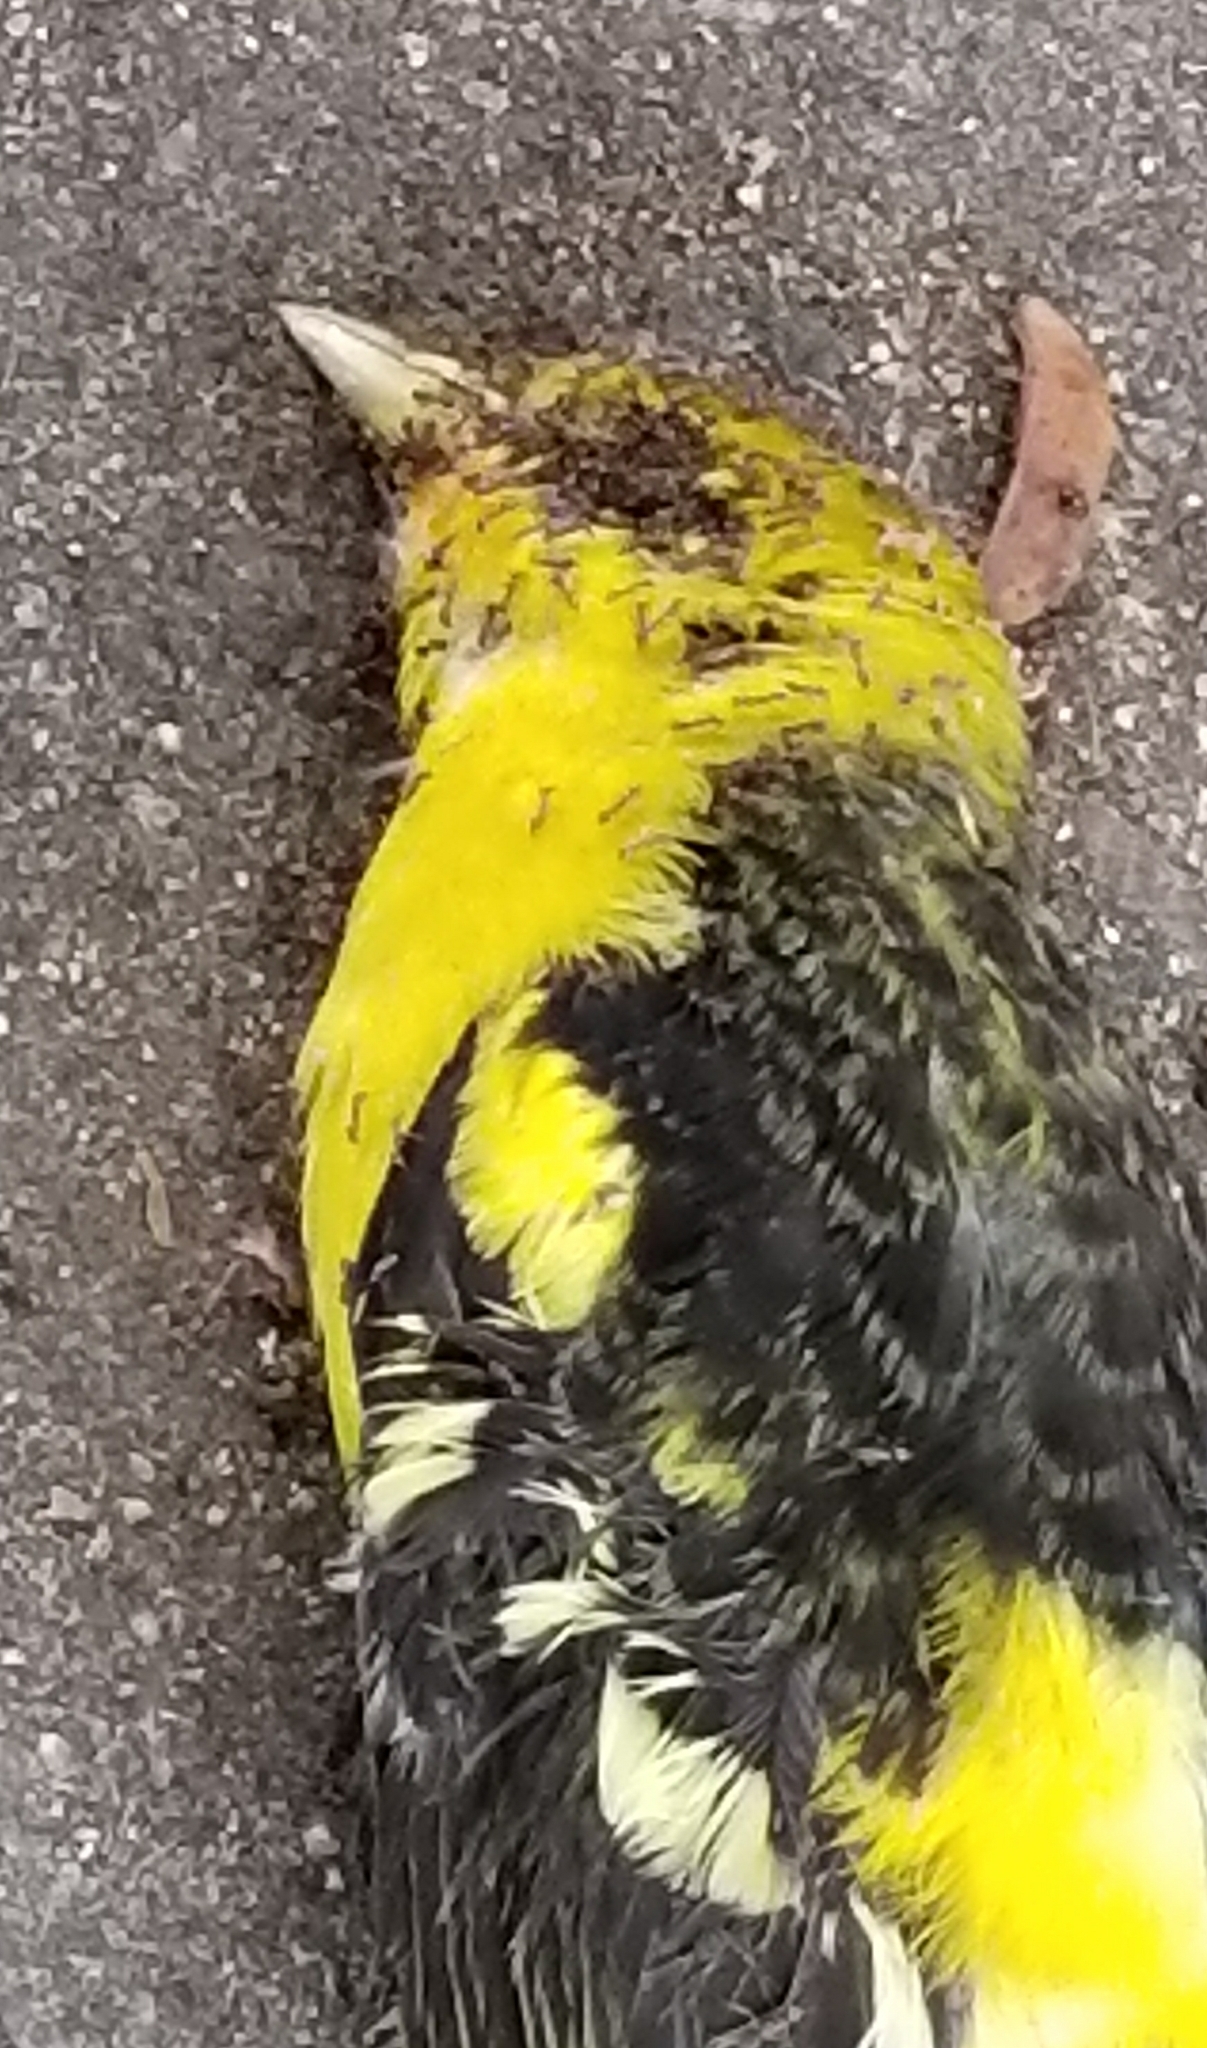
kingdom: Animalia
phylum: Chordata
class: Aves
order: Passeriformes
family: Cardinalidae
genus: Piranga
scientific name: Piranga ludoviciana
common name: Western tanager
